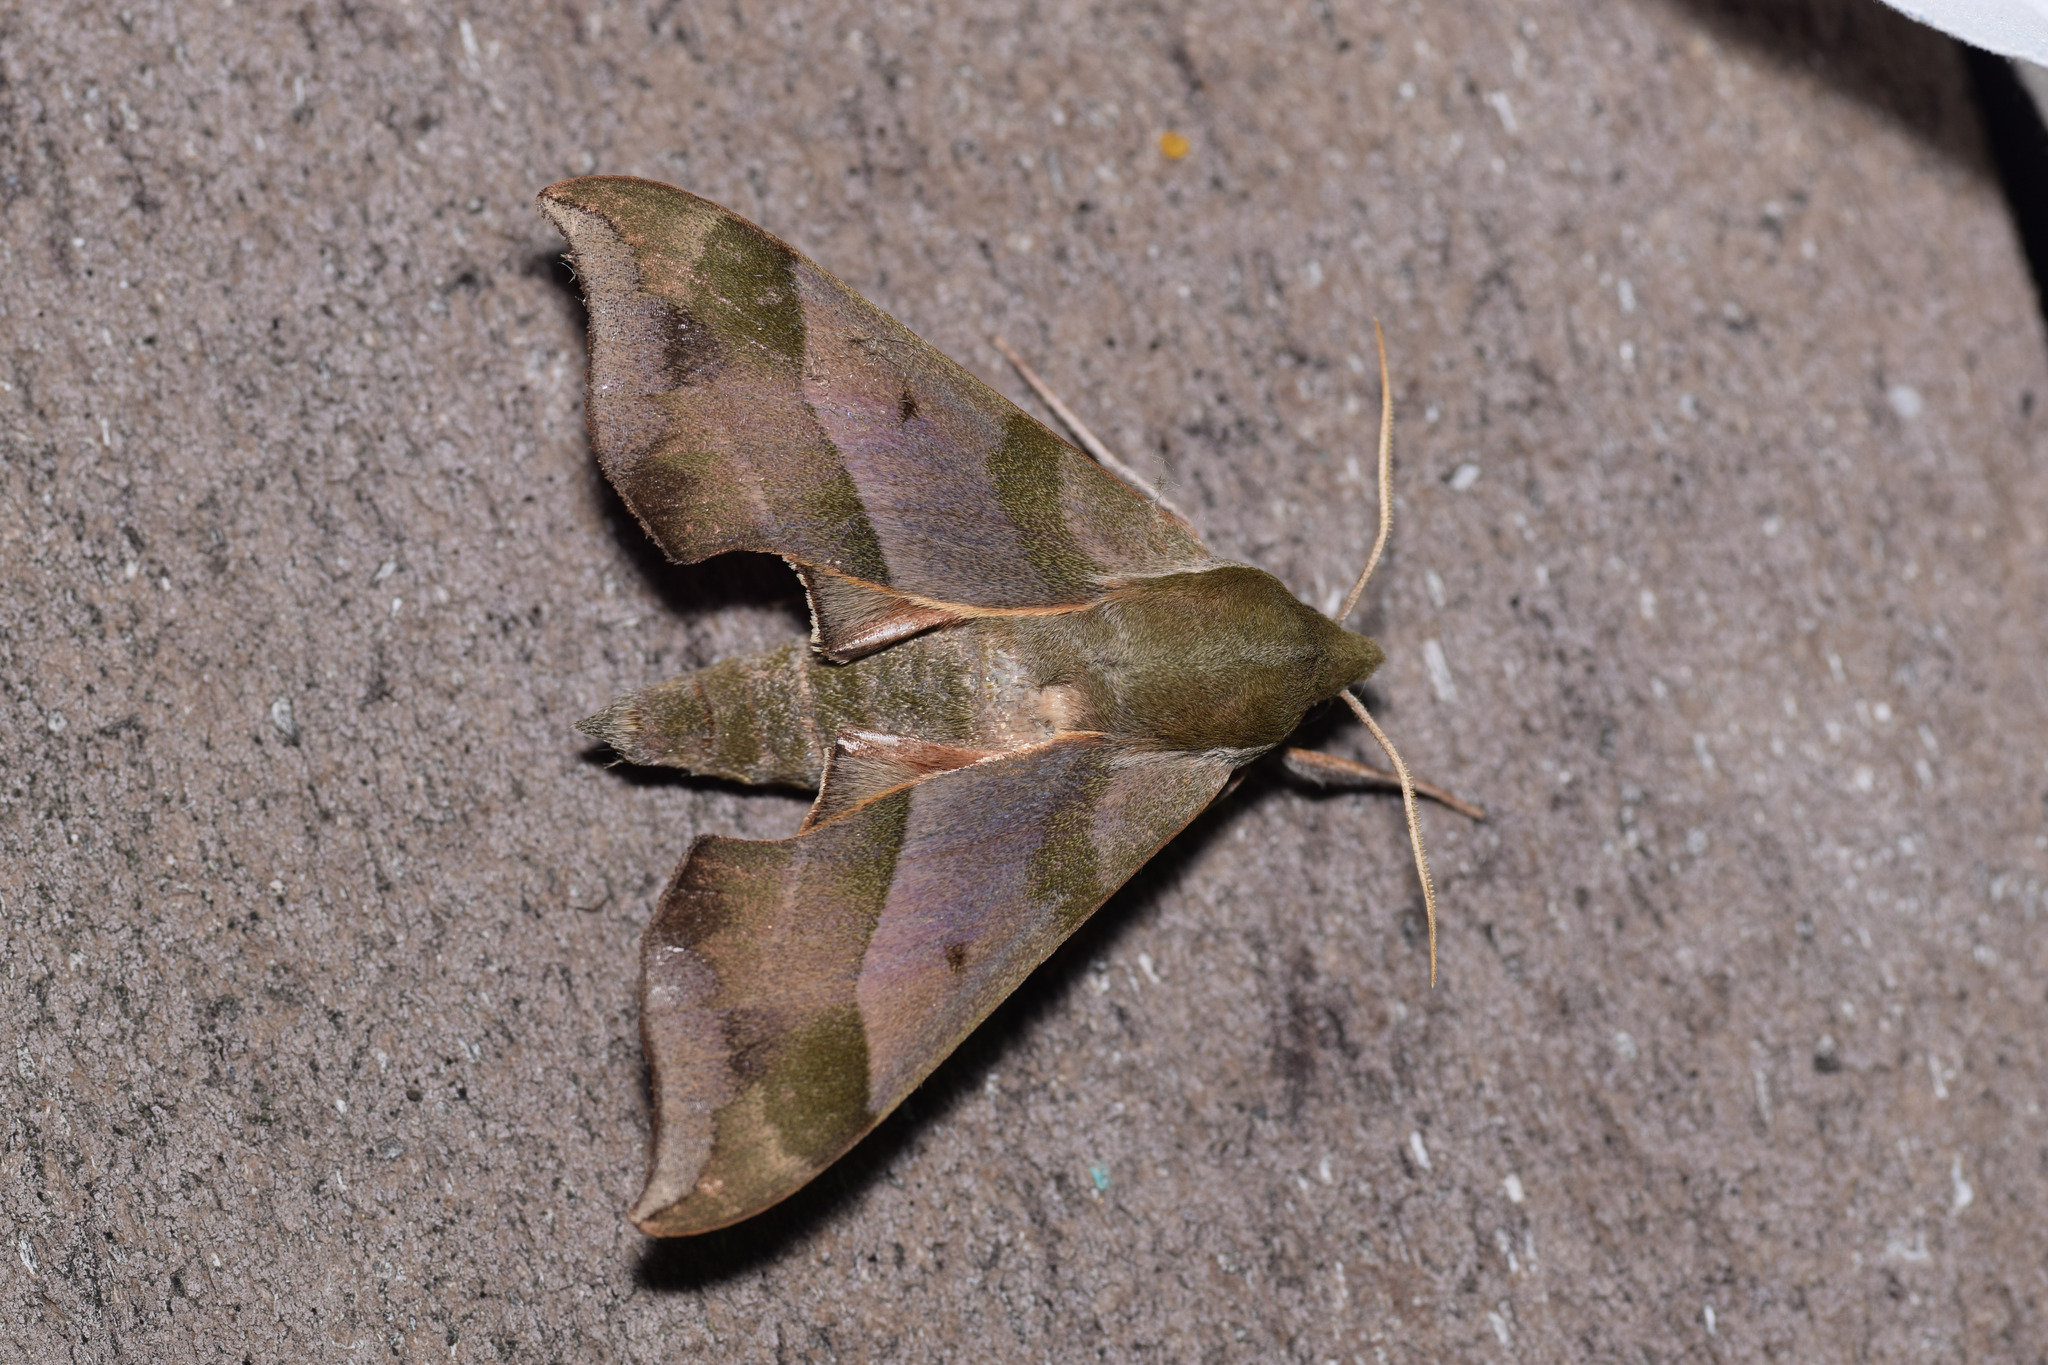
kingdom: Animalia
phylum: Arthropoda
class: Insecta
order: Lepidoptera
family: Sphingidae
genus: Darapsa
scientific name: Darapsa myron
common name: Hog sphinx
